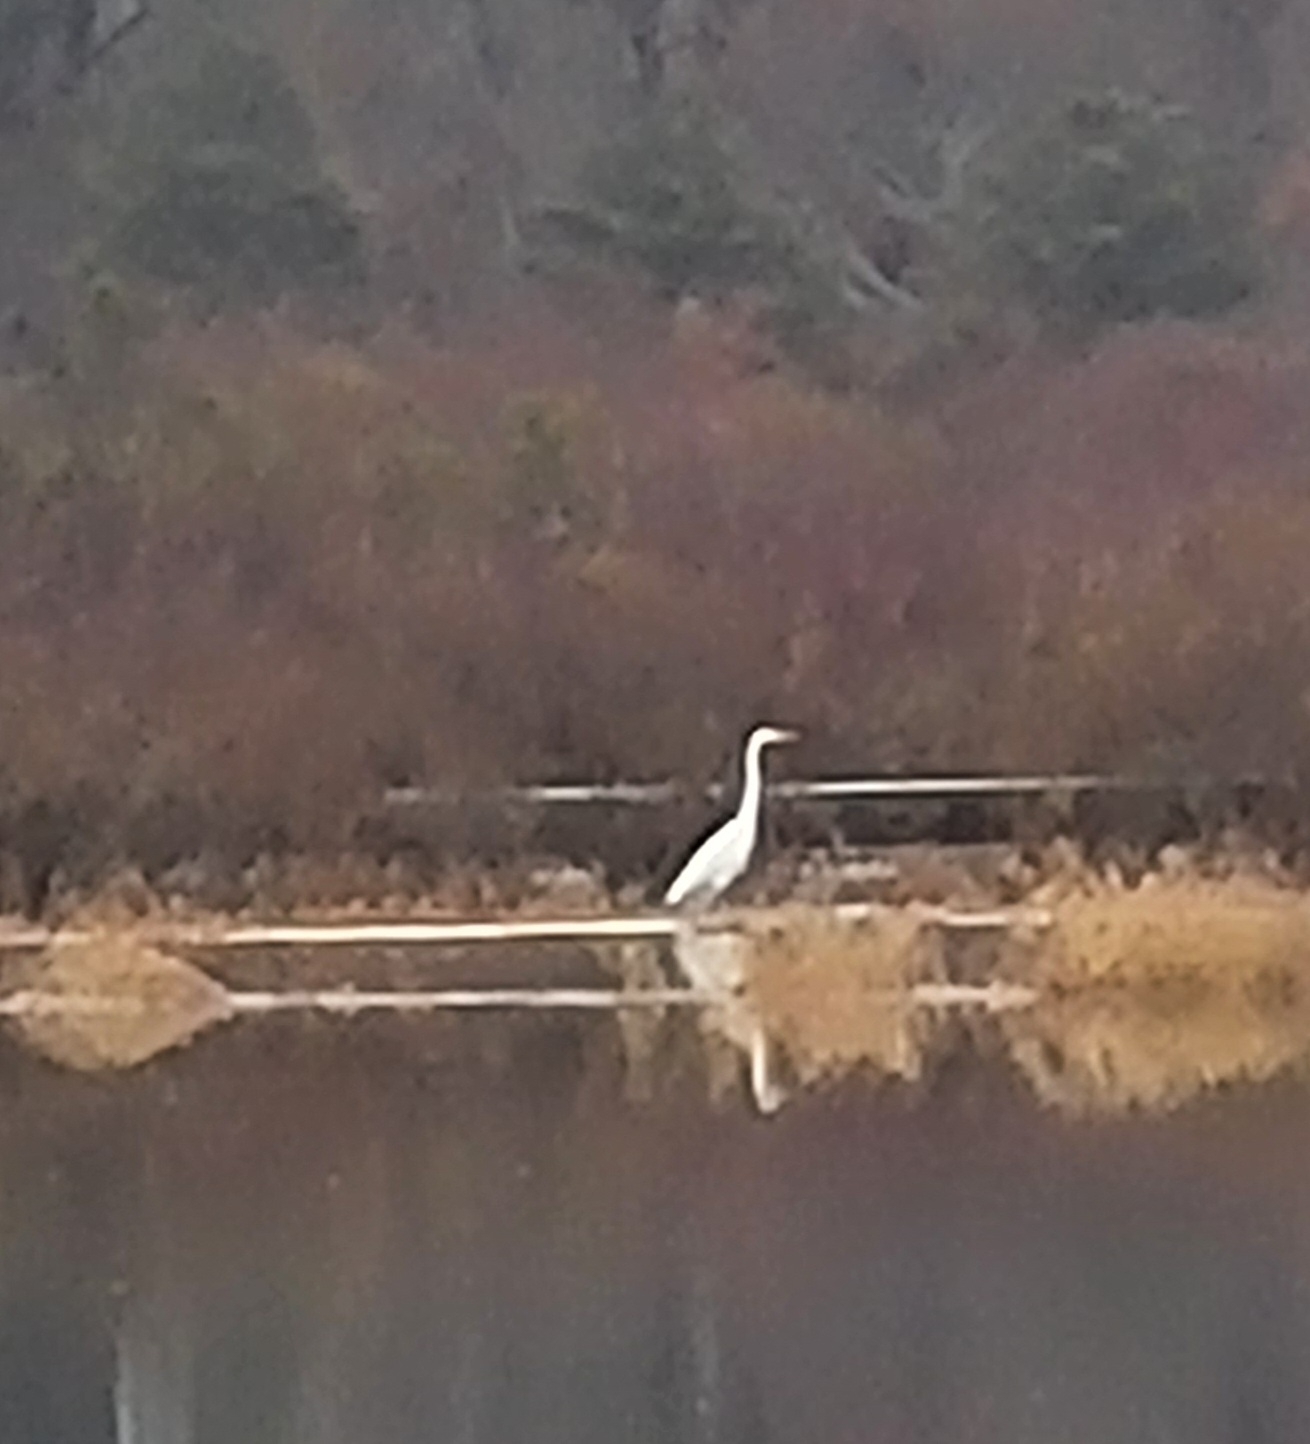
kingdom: Animalia
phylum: Chordata
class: Aves
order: Pelecaniformes
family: Ardeidae
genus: Ardea
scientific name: Ardea alba
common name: Great egret
